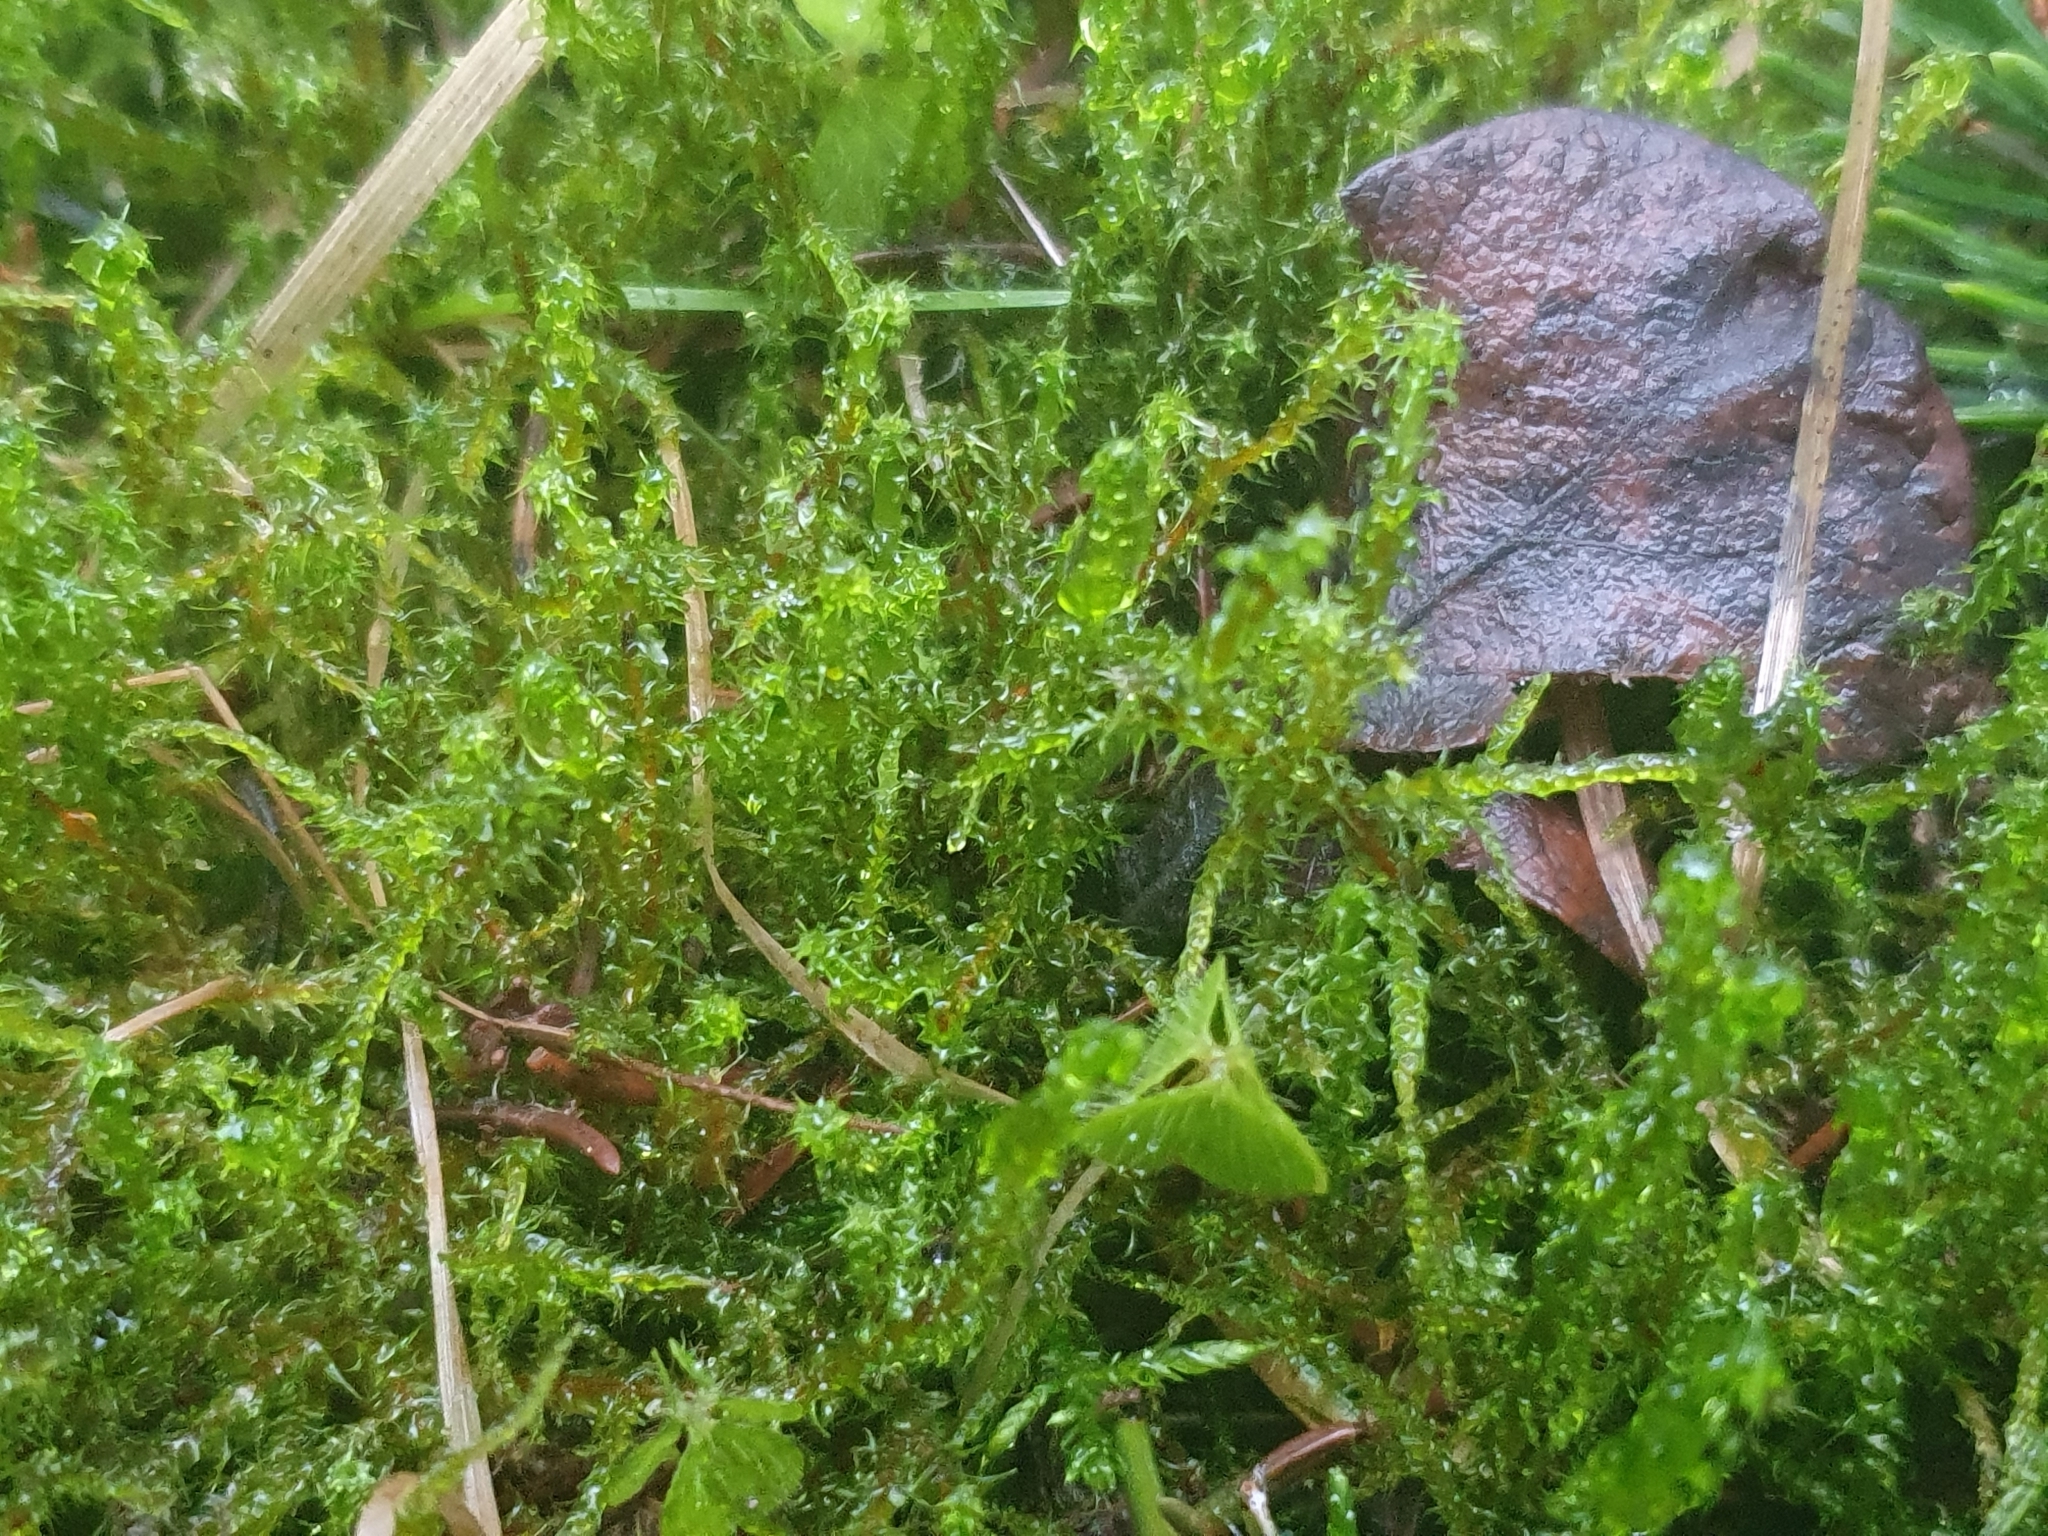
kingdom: Plantae
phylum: Bryophyta
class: Bryopsida
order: Hypnales
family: Hylocomiaceae
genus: Rhytidiadelphus
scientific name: Rhytidiadelphus squarrosus
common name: Springy turf-moss
